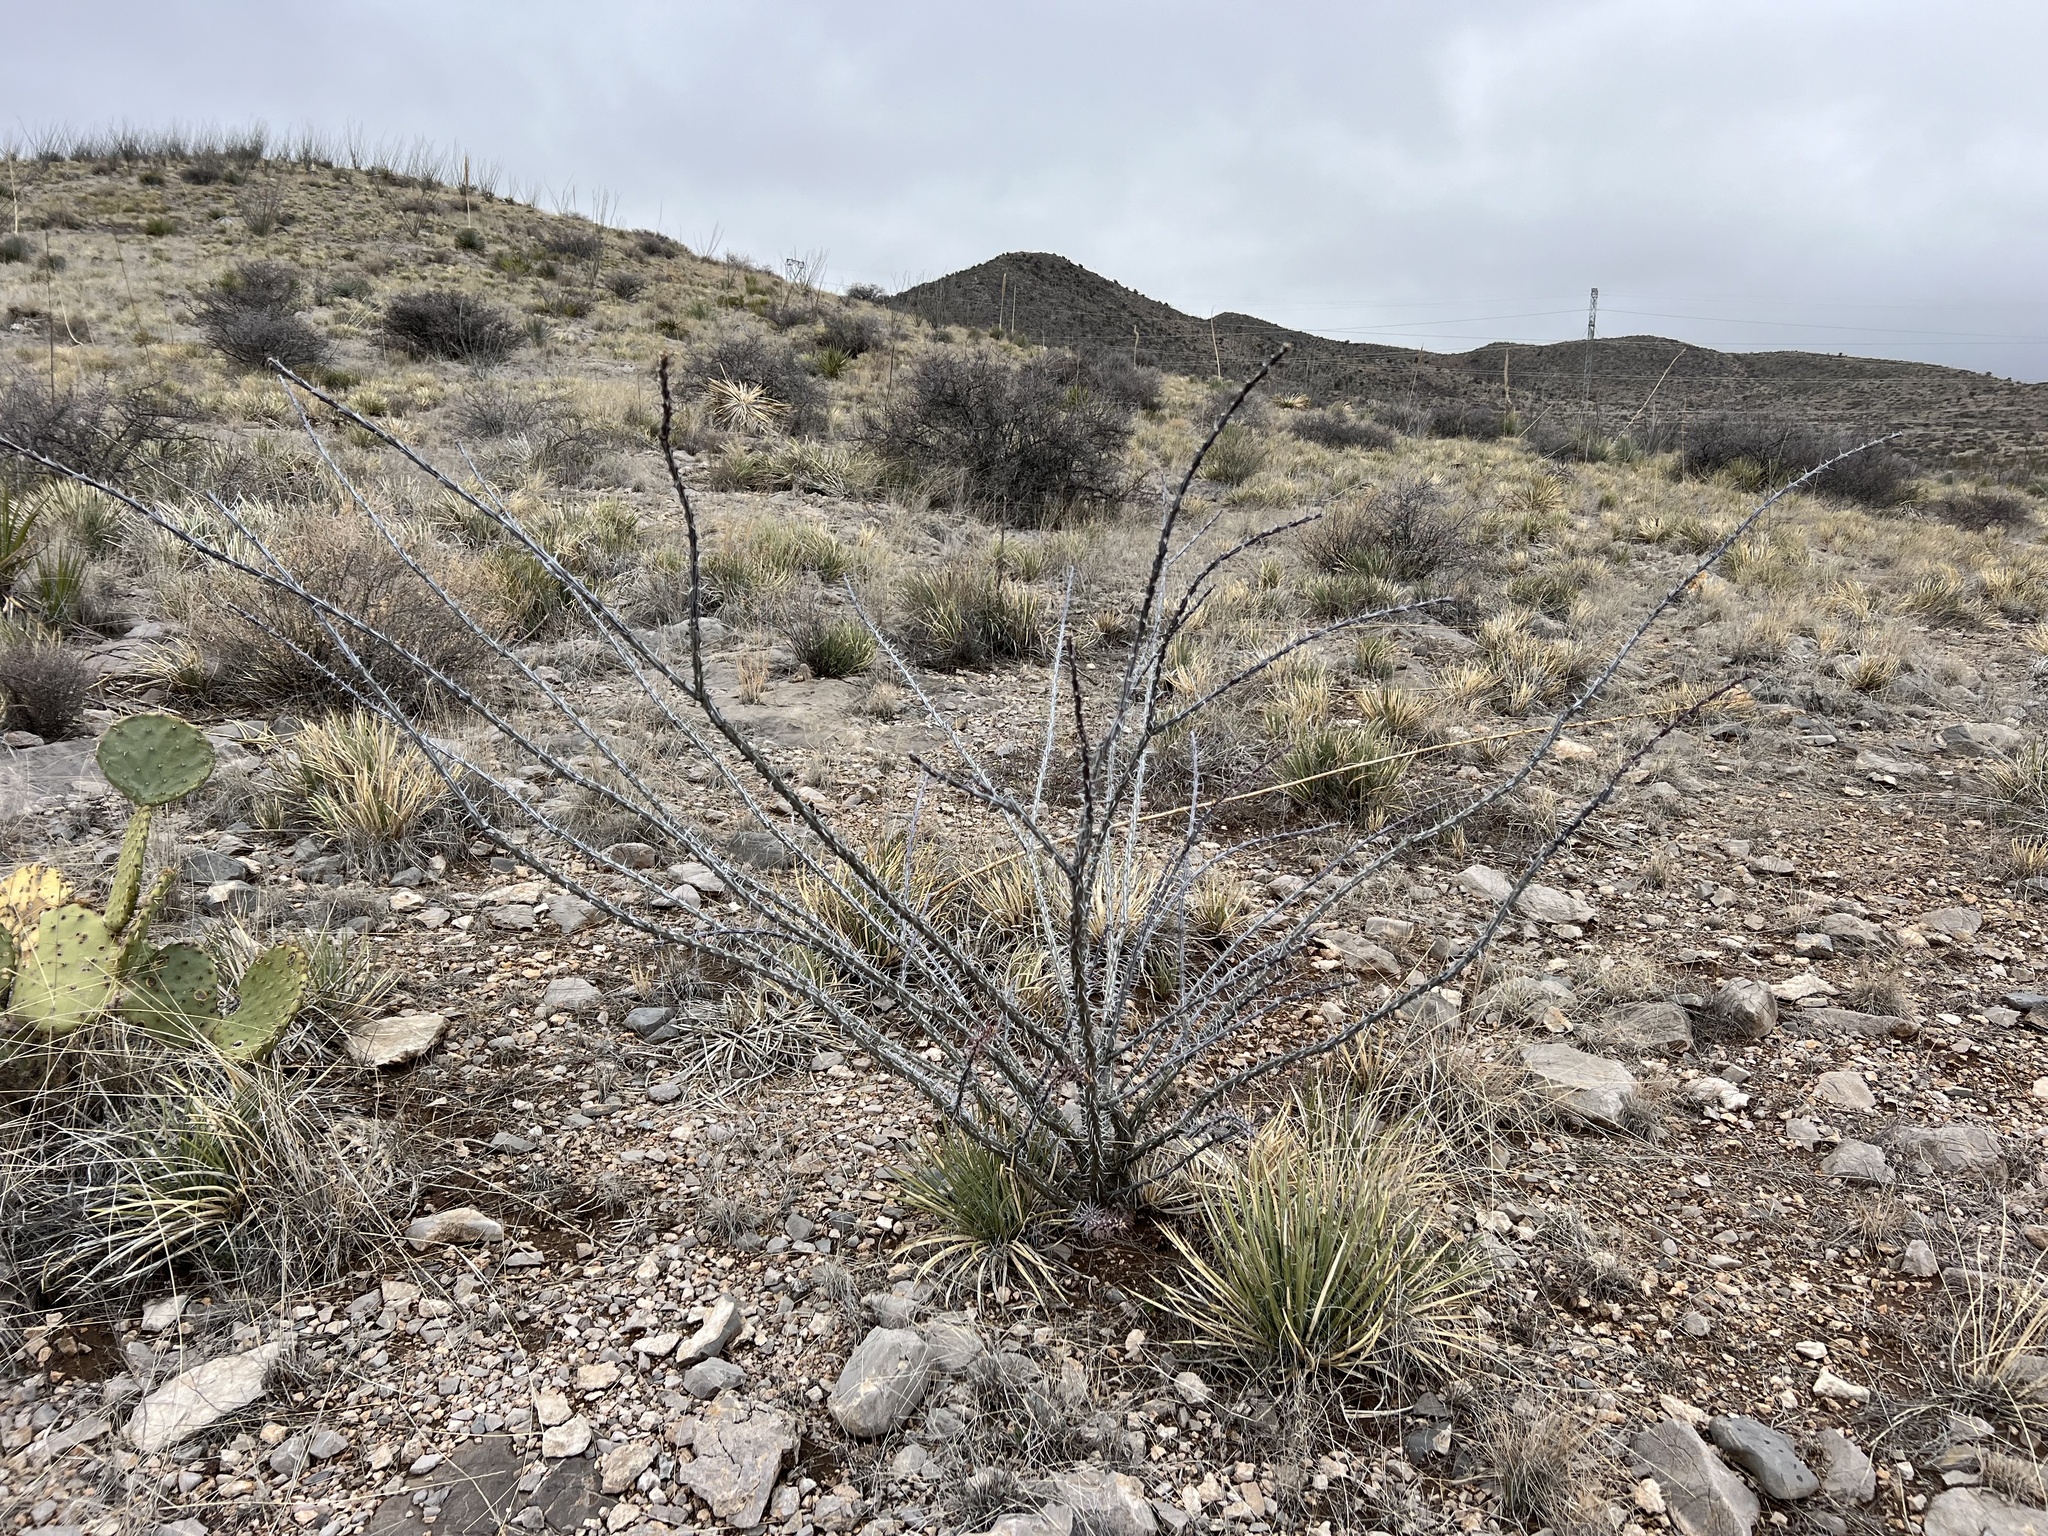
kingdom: Plantae
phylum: Tracheophyta
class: Magnoliopsida
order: Ericales
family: Fouquieriaceae
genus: Fouquieria
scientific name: Fouquieria splendens
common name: Vine-cactus
